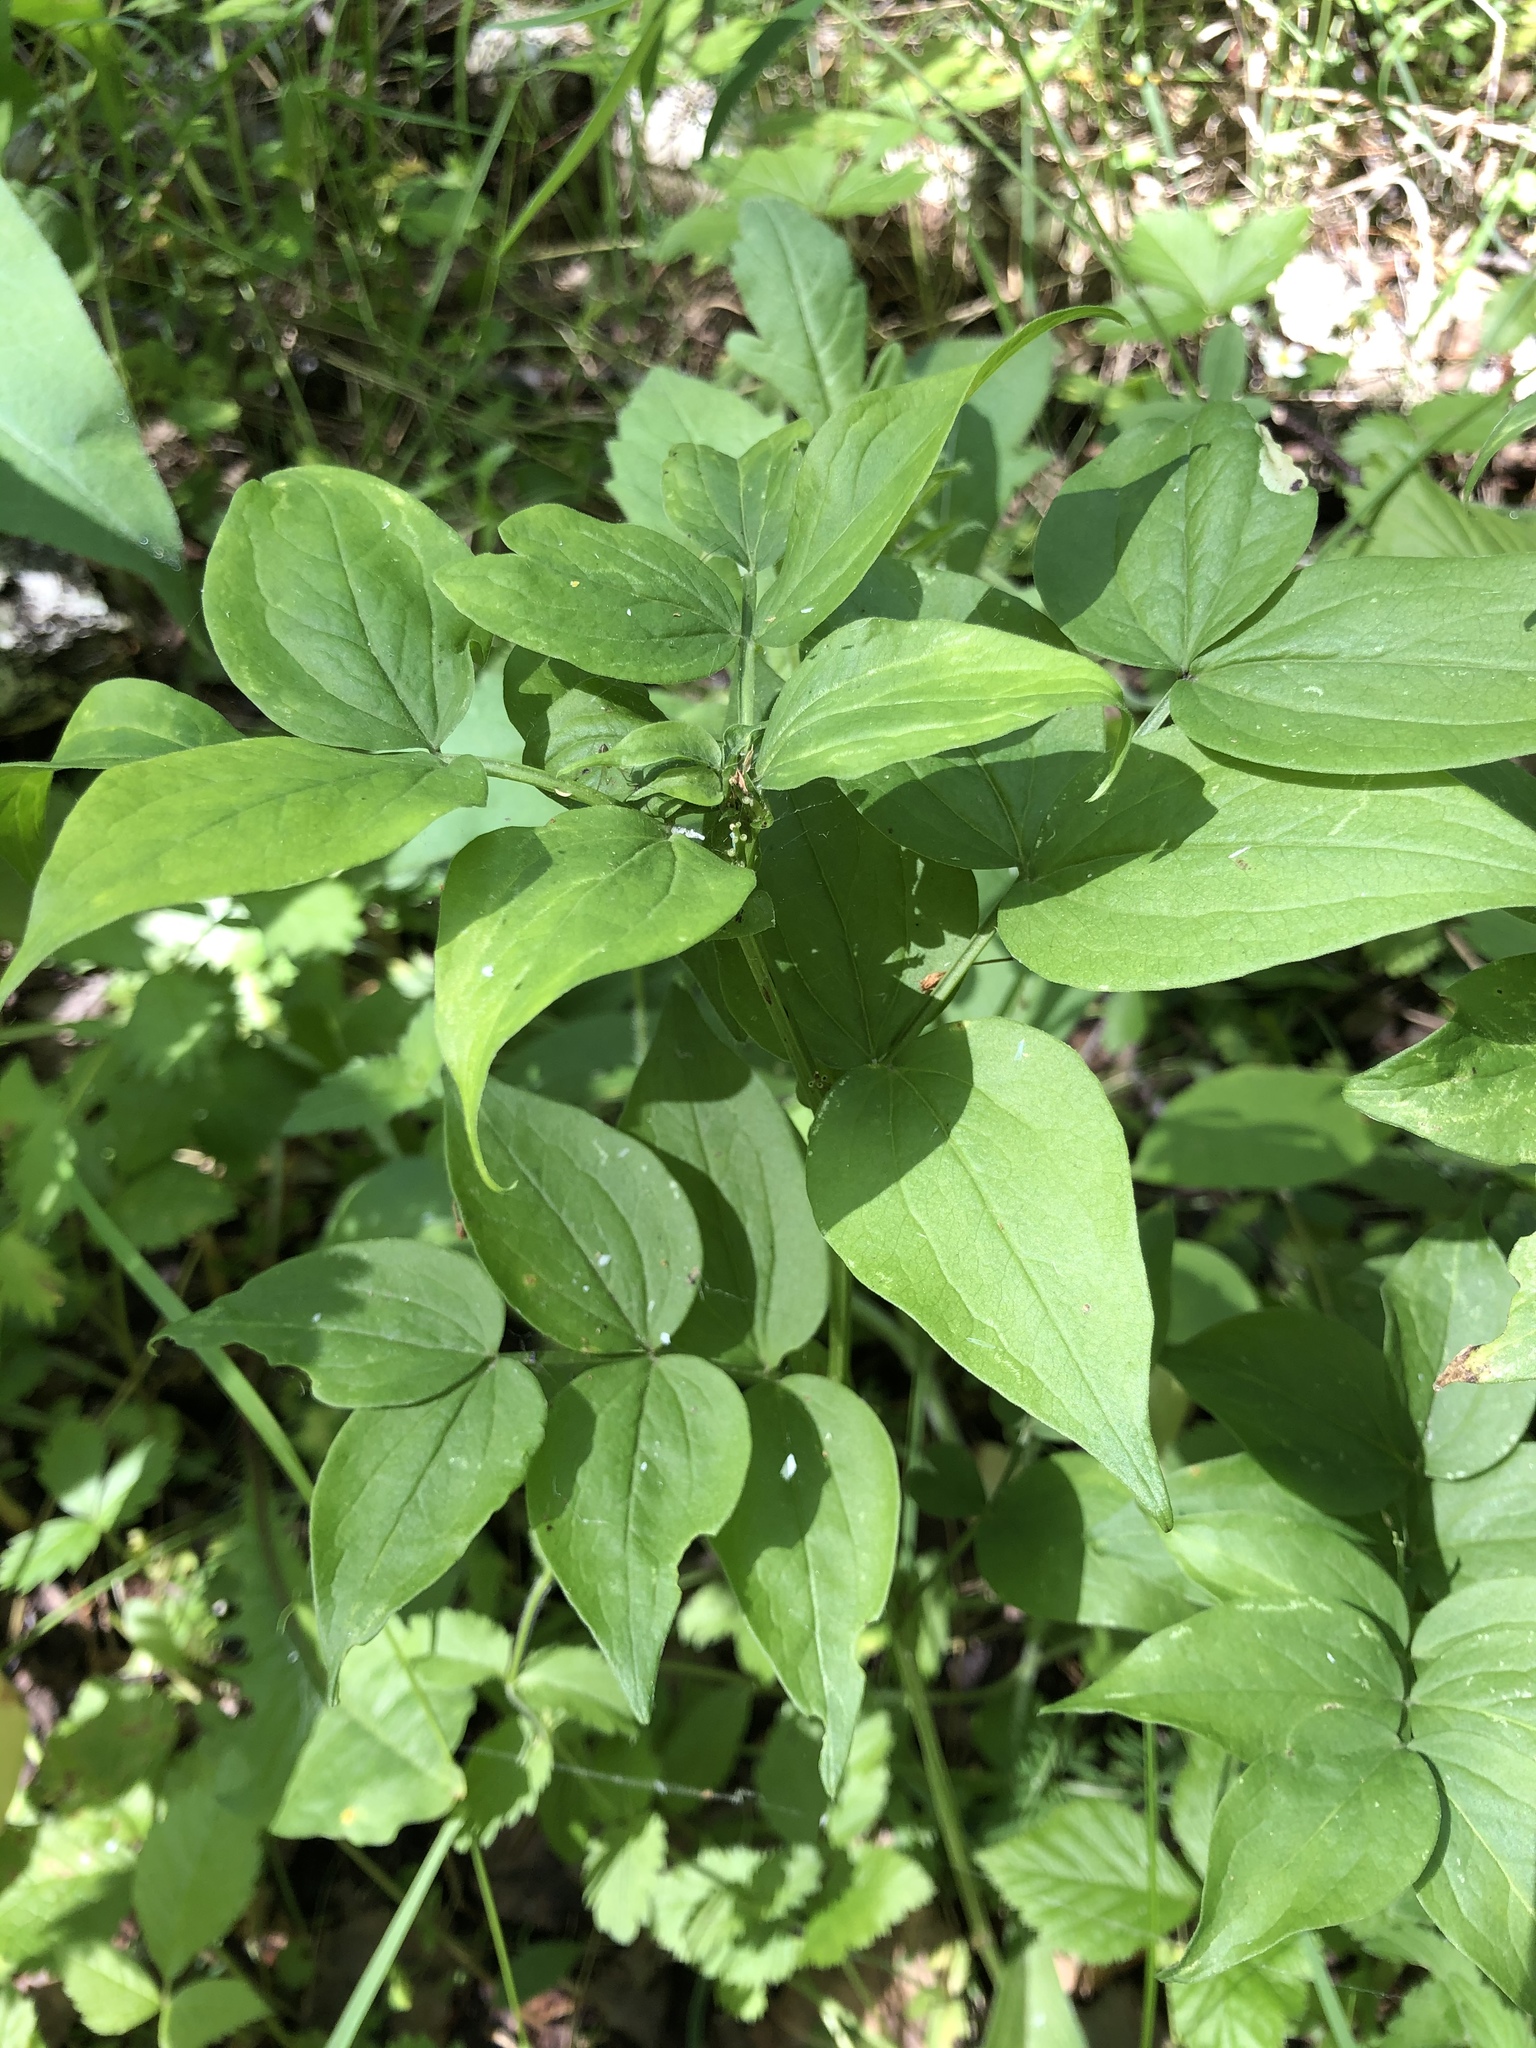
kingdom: Plantae
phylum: Tracheophyta
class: Magnoliopsida
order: Fabales
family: Fabaceae
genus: Lathyrus
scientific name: Lathyrus vernus
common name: Spring pea
